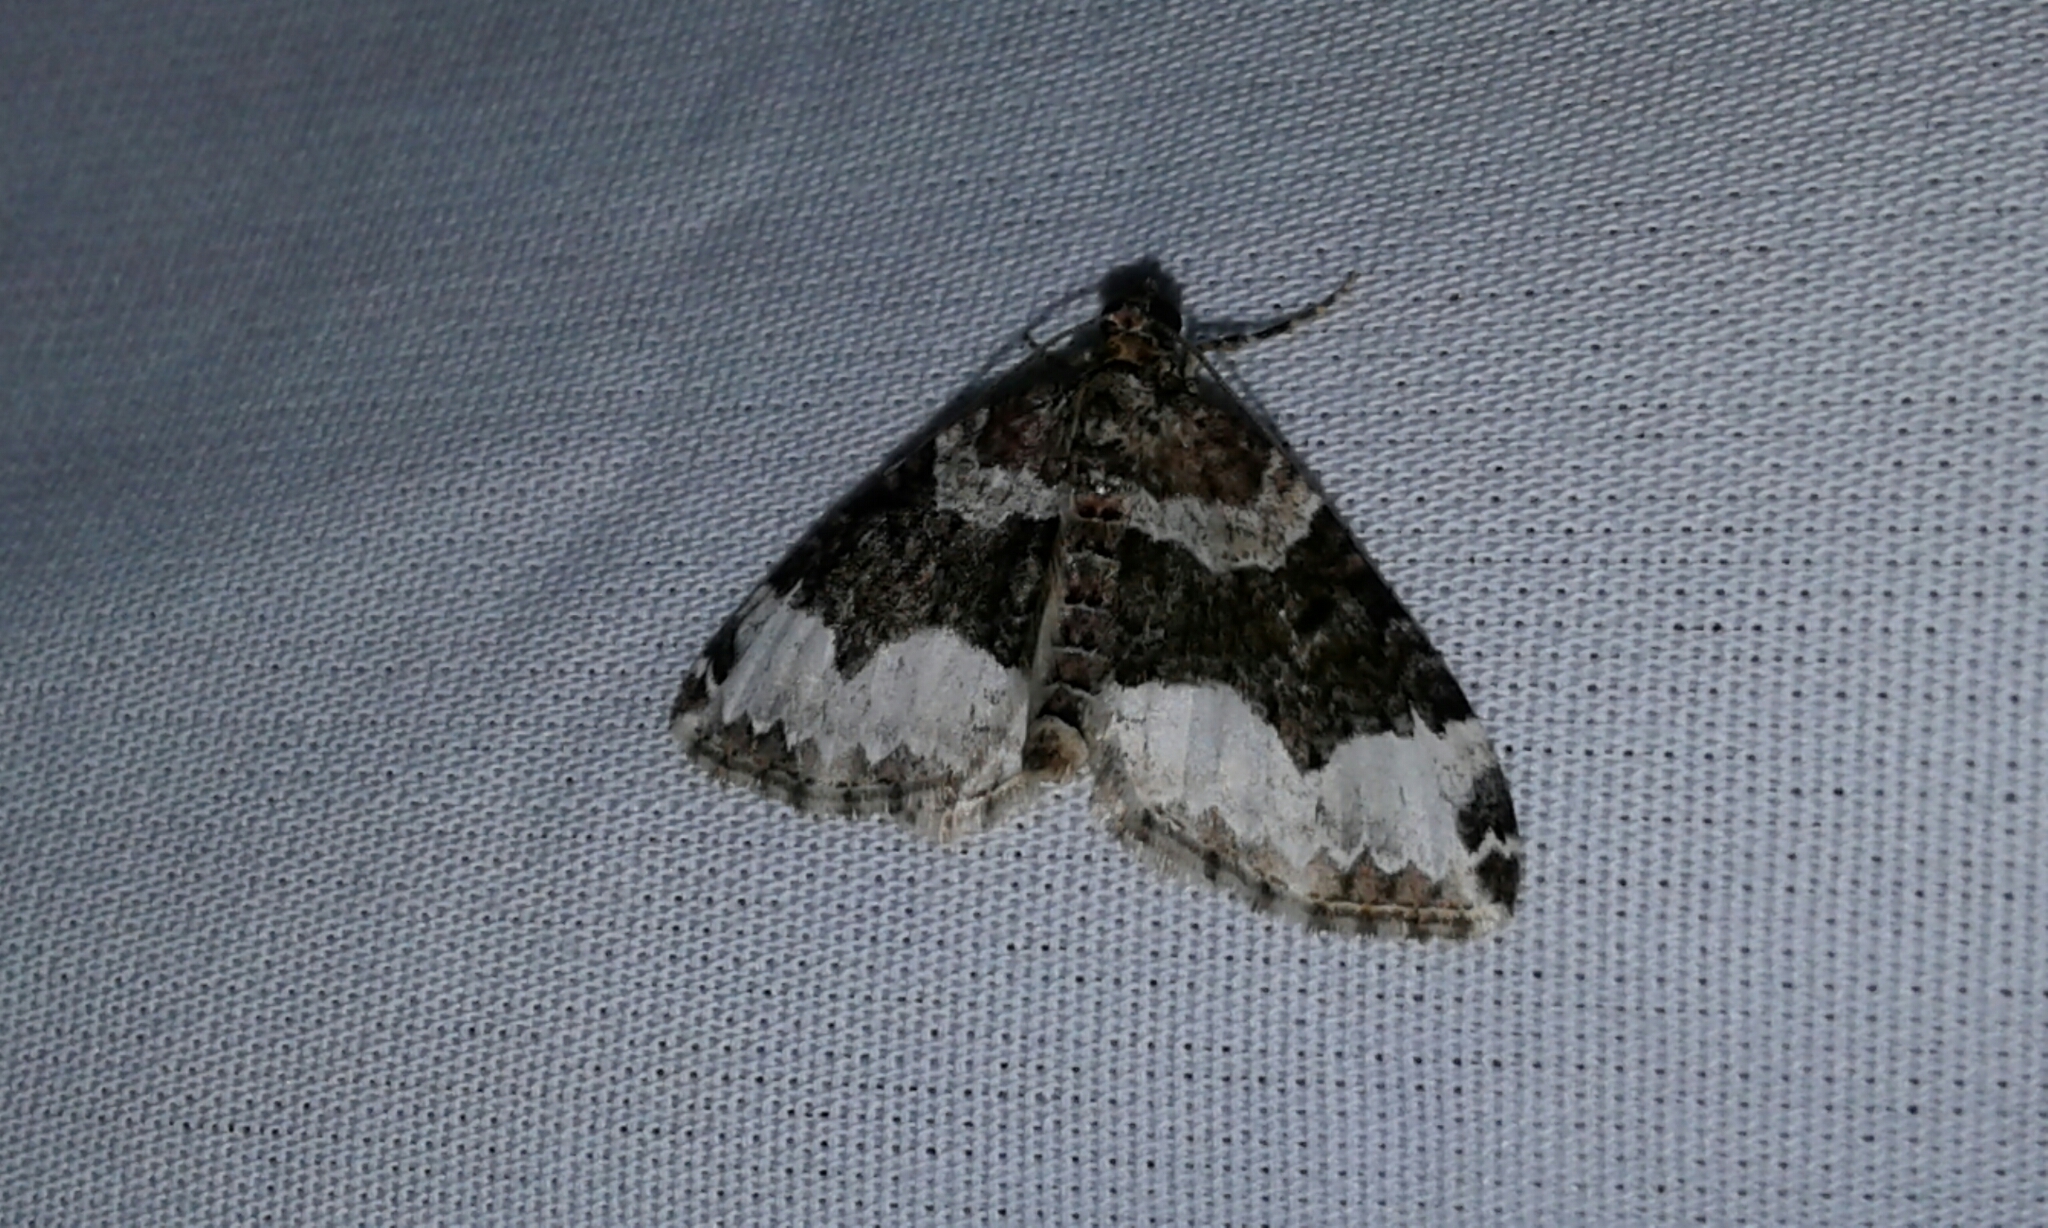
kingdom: Animalia
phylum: Arthropoda
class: Insecta
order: Lepidoptera
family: Geometridae
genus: Euphyia
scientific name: Euphyia intermediata
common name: Sharp-angled carpet
